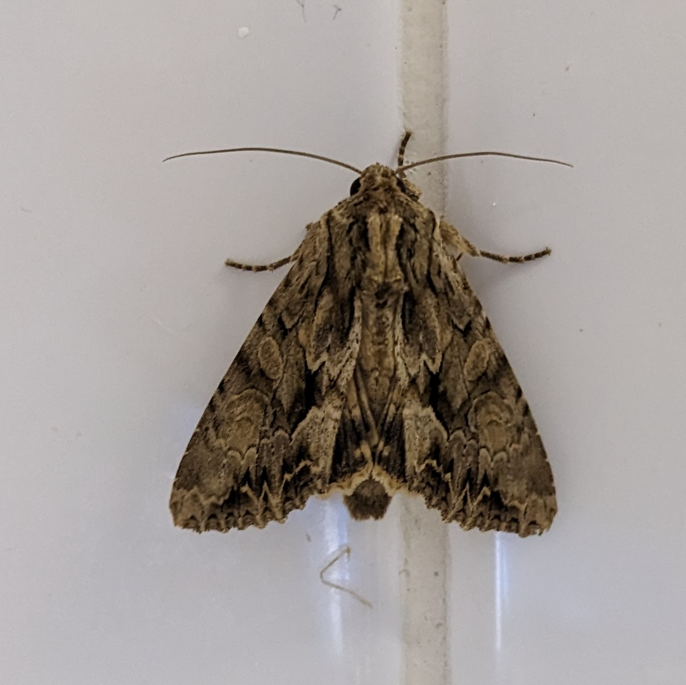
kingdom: Animalia
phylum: Arthropoda
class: Insecta
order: Lepidoptera
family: Noctuidae
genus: Apamea
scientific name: Apamea monoglypha
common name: Dark arches
